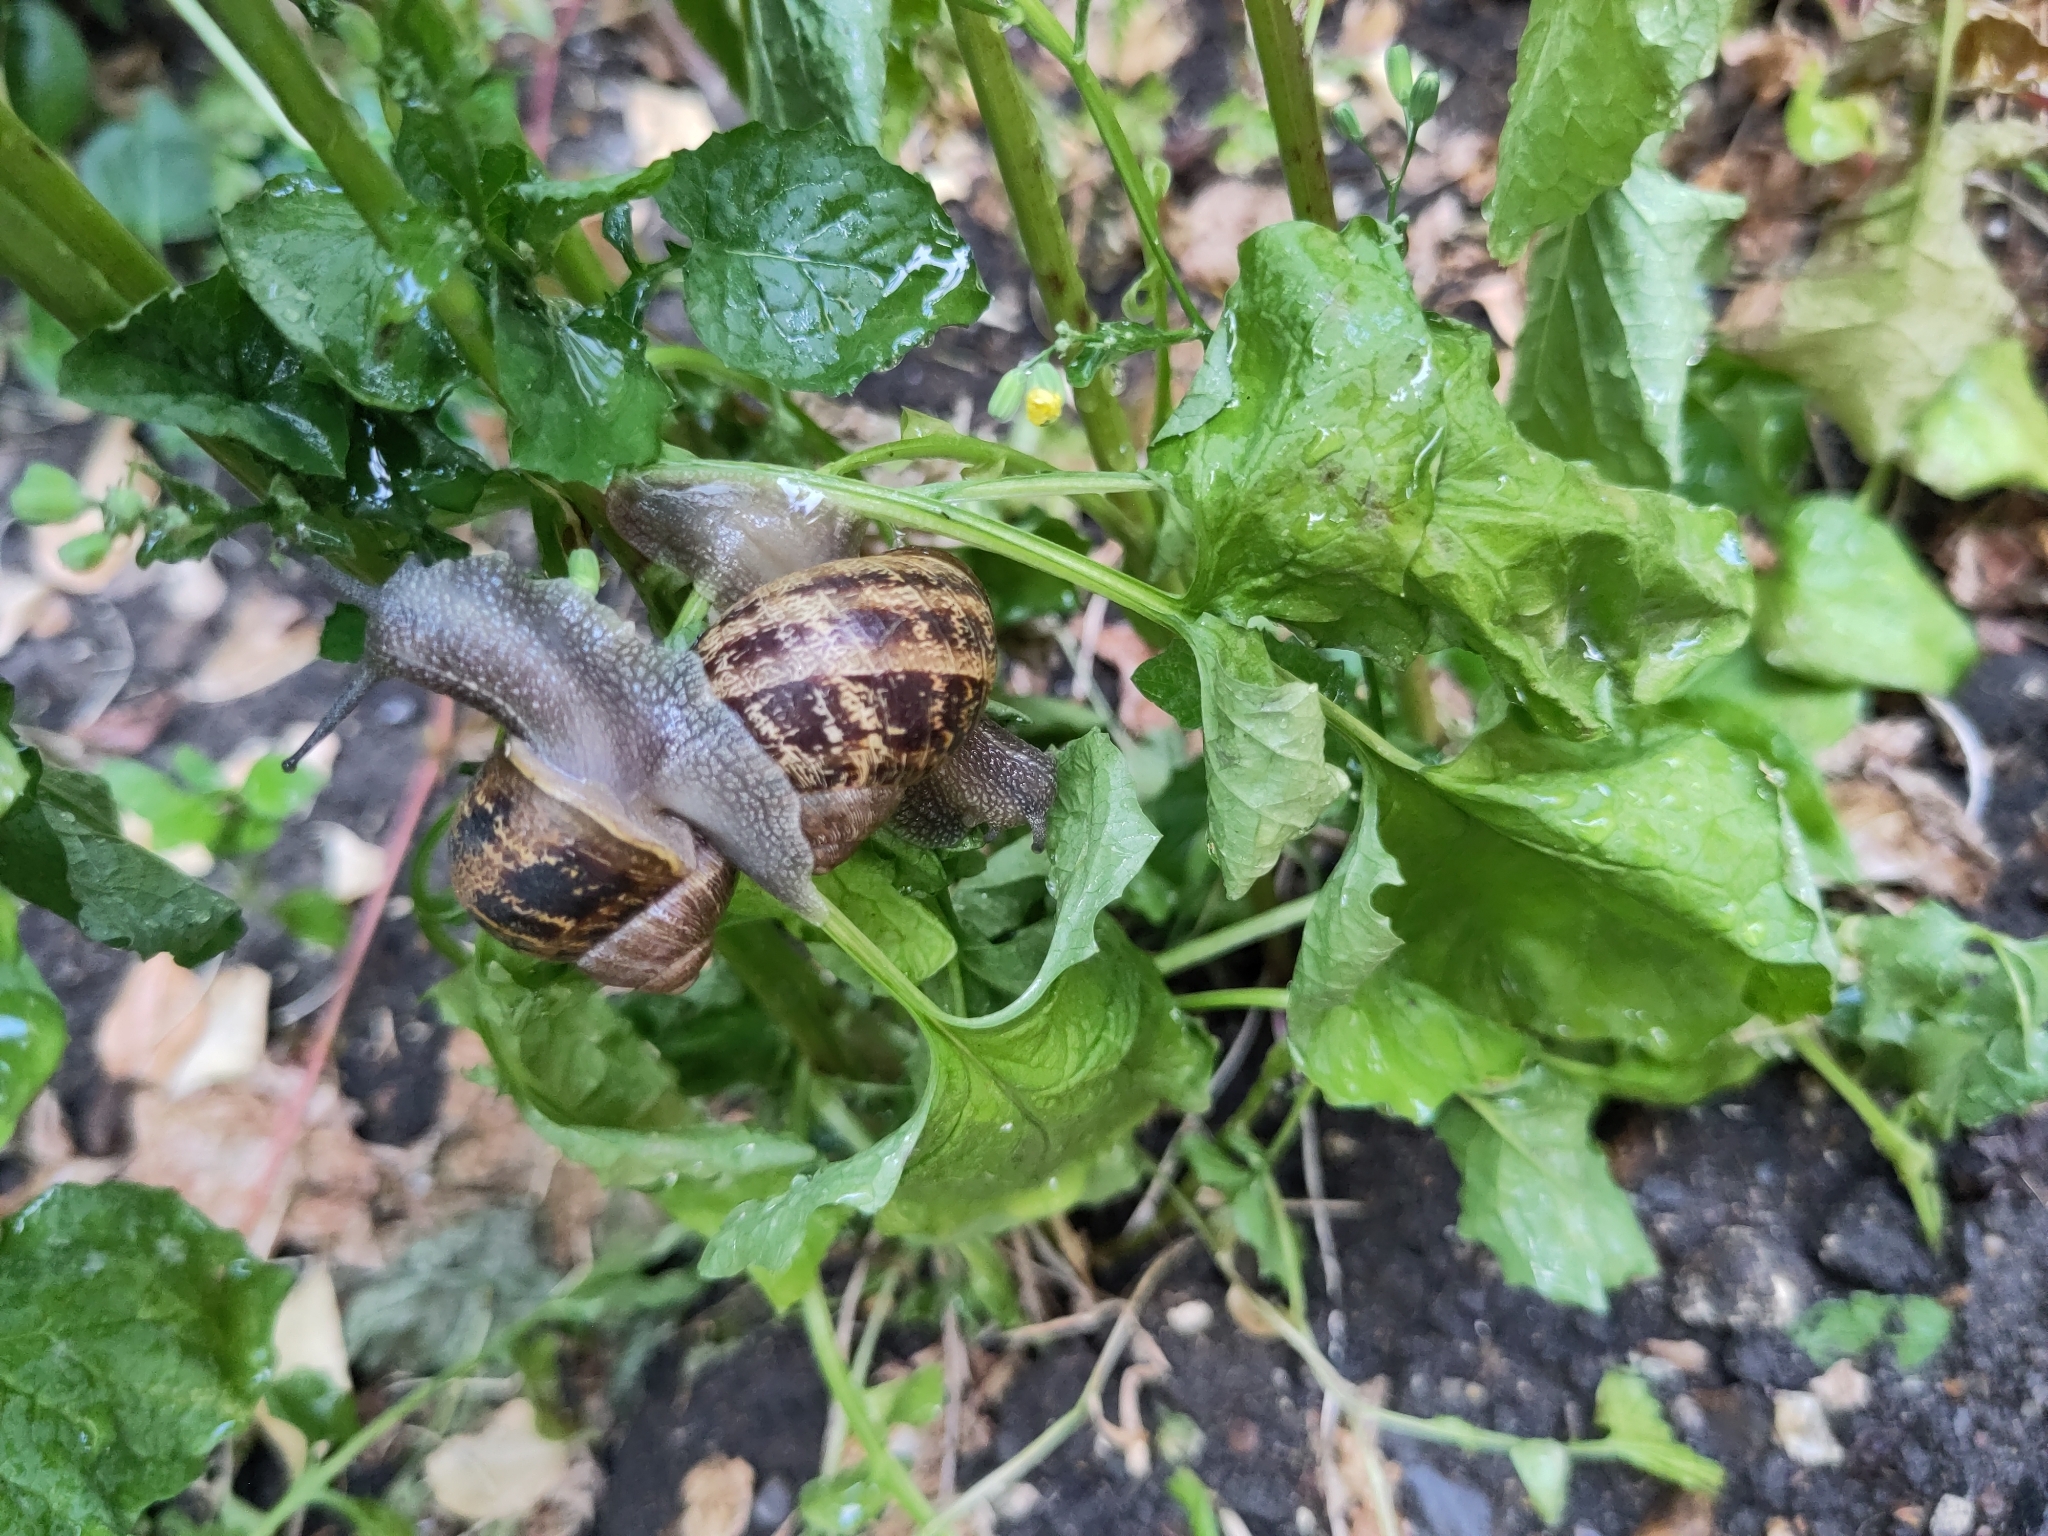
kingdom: Animalia
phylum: Mollusca
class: Gastropoda
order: Stylommatophora
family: Helicidae
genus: Cornu
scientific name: Cornu aspersum
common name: Brown garden snail
